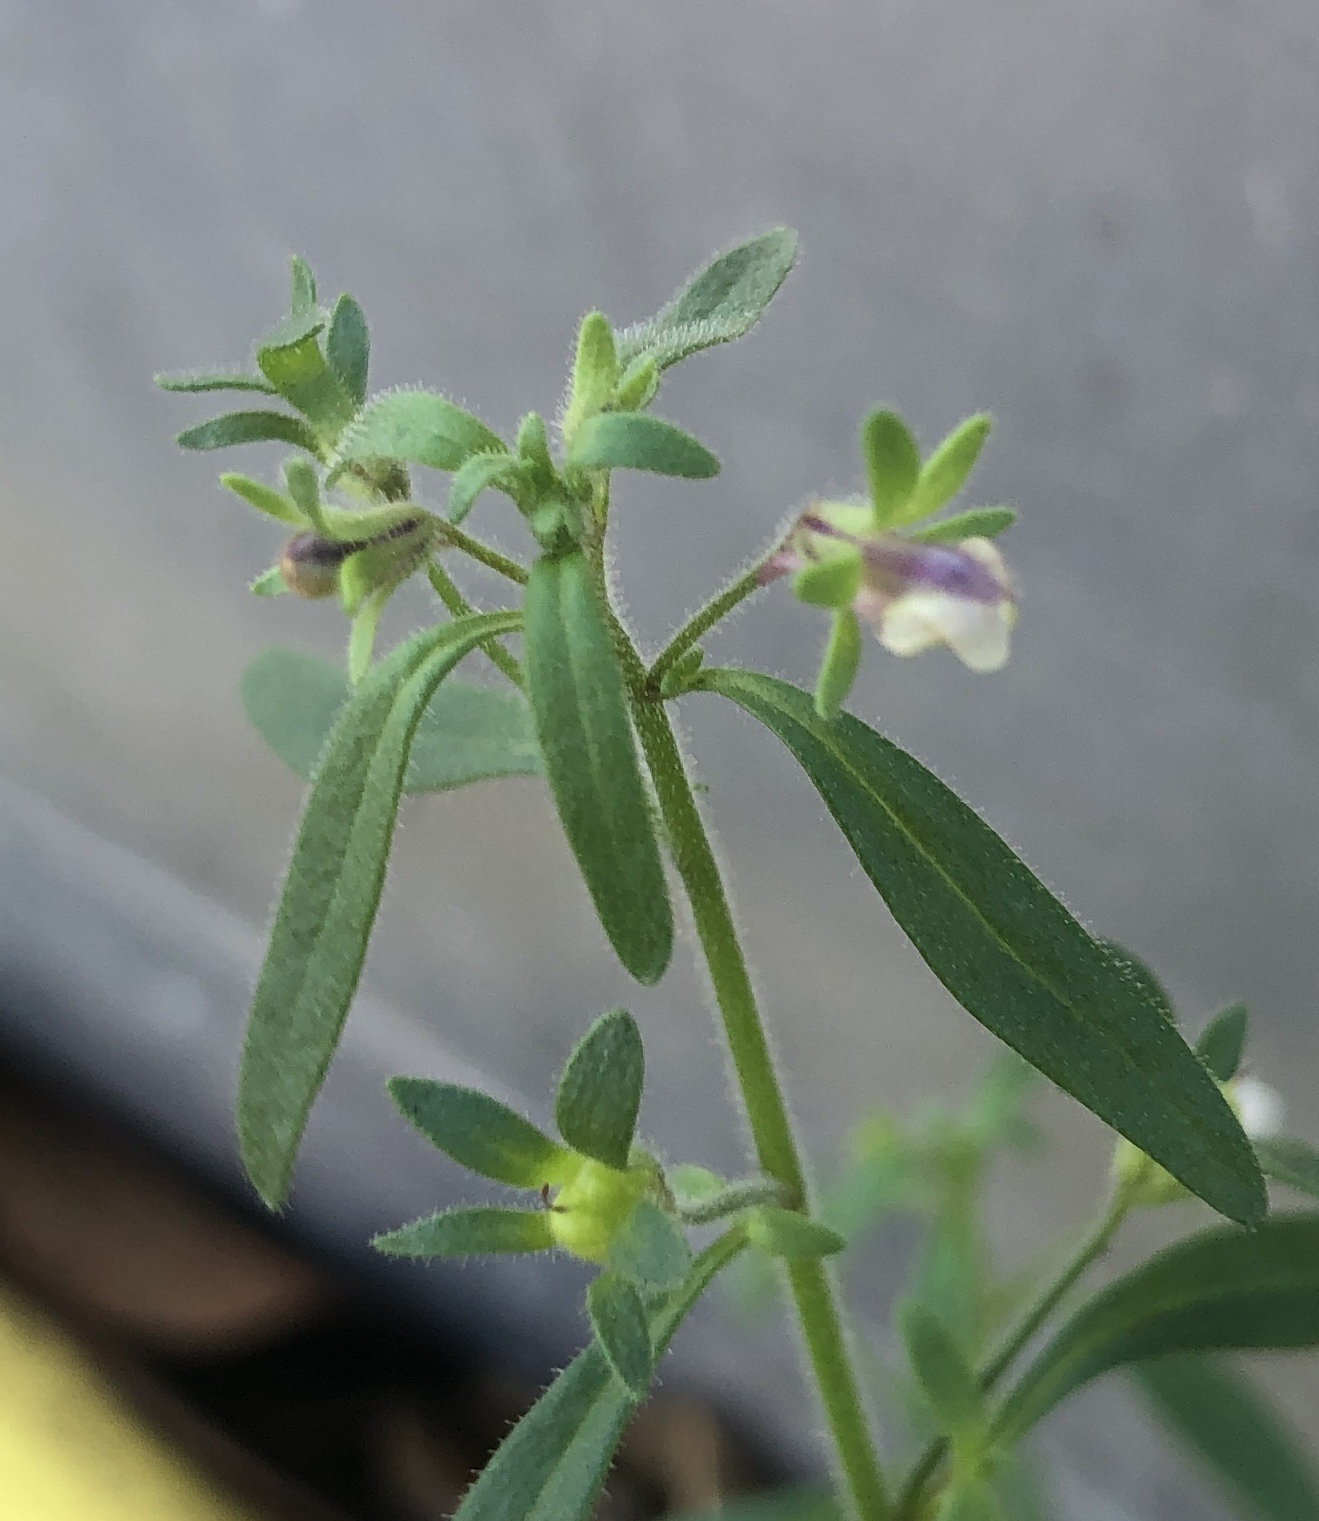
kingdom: Plantae
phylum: Tracheophyta
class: Magnoliopsida
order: Lamiales
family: Plantaginaceae
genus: Chaenorhinum
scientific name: Chaenorhinum minus
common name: Dwarf snapdragon
